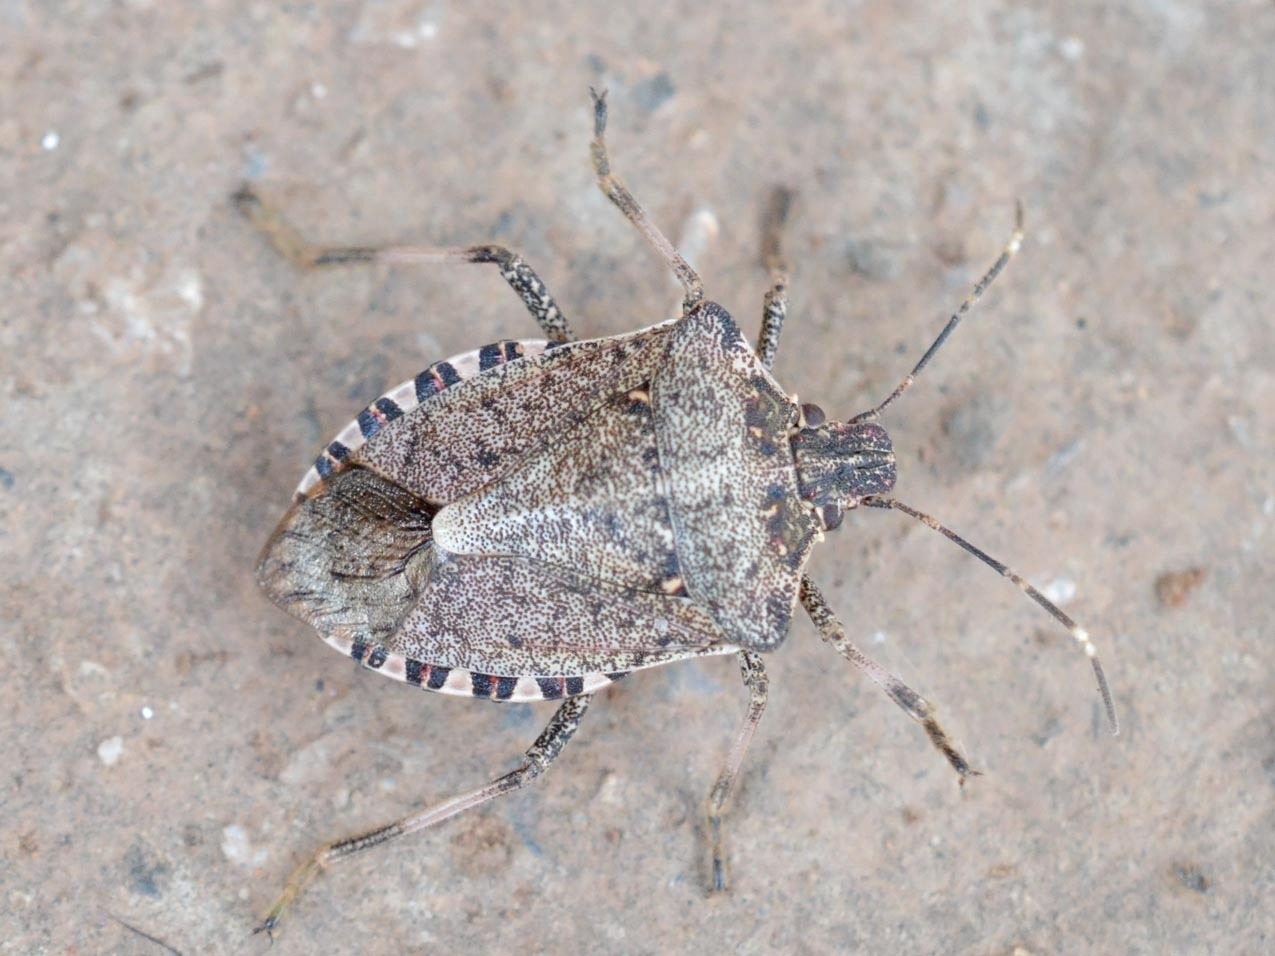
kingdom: Animalia
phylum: Arthropoda
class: Insecta
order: Hemiptera
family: Pentatomidae
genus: Halyomorpha
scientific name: Halyomorpha halys
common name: Brown marmorated stink bug
